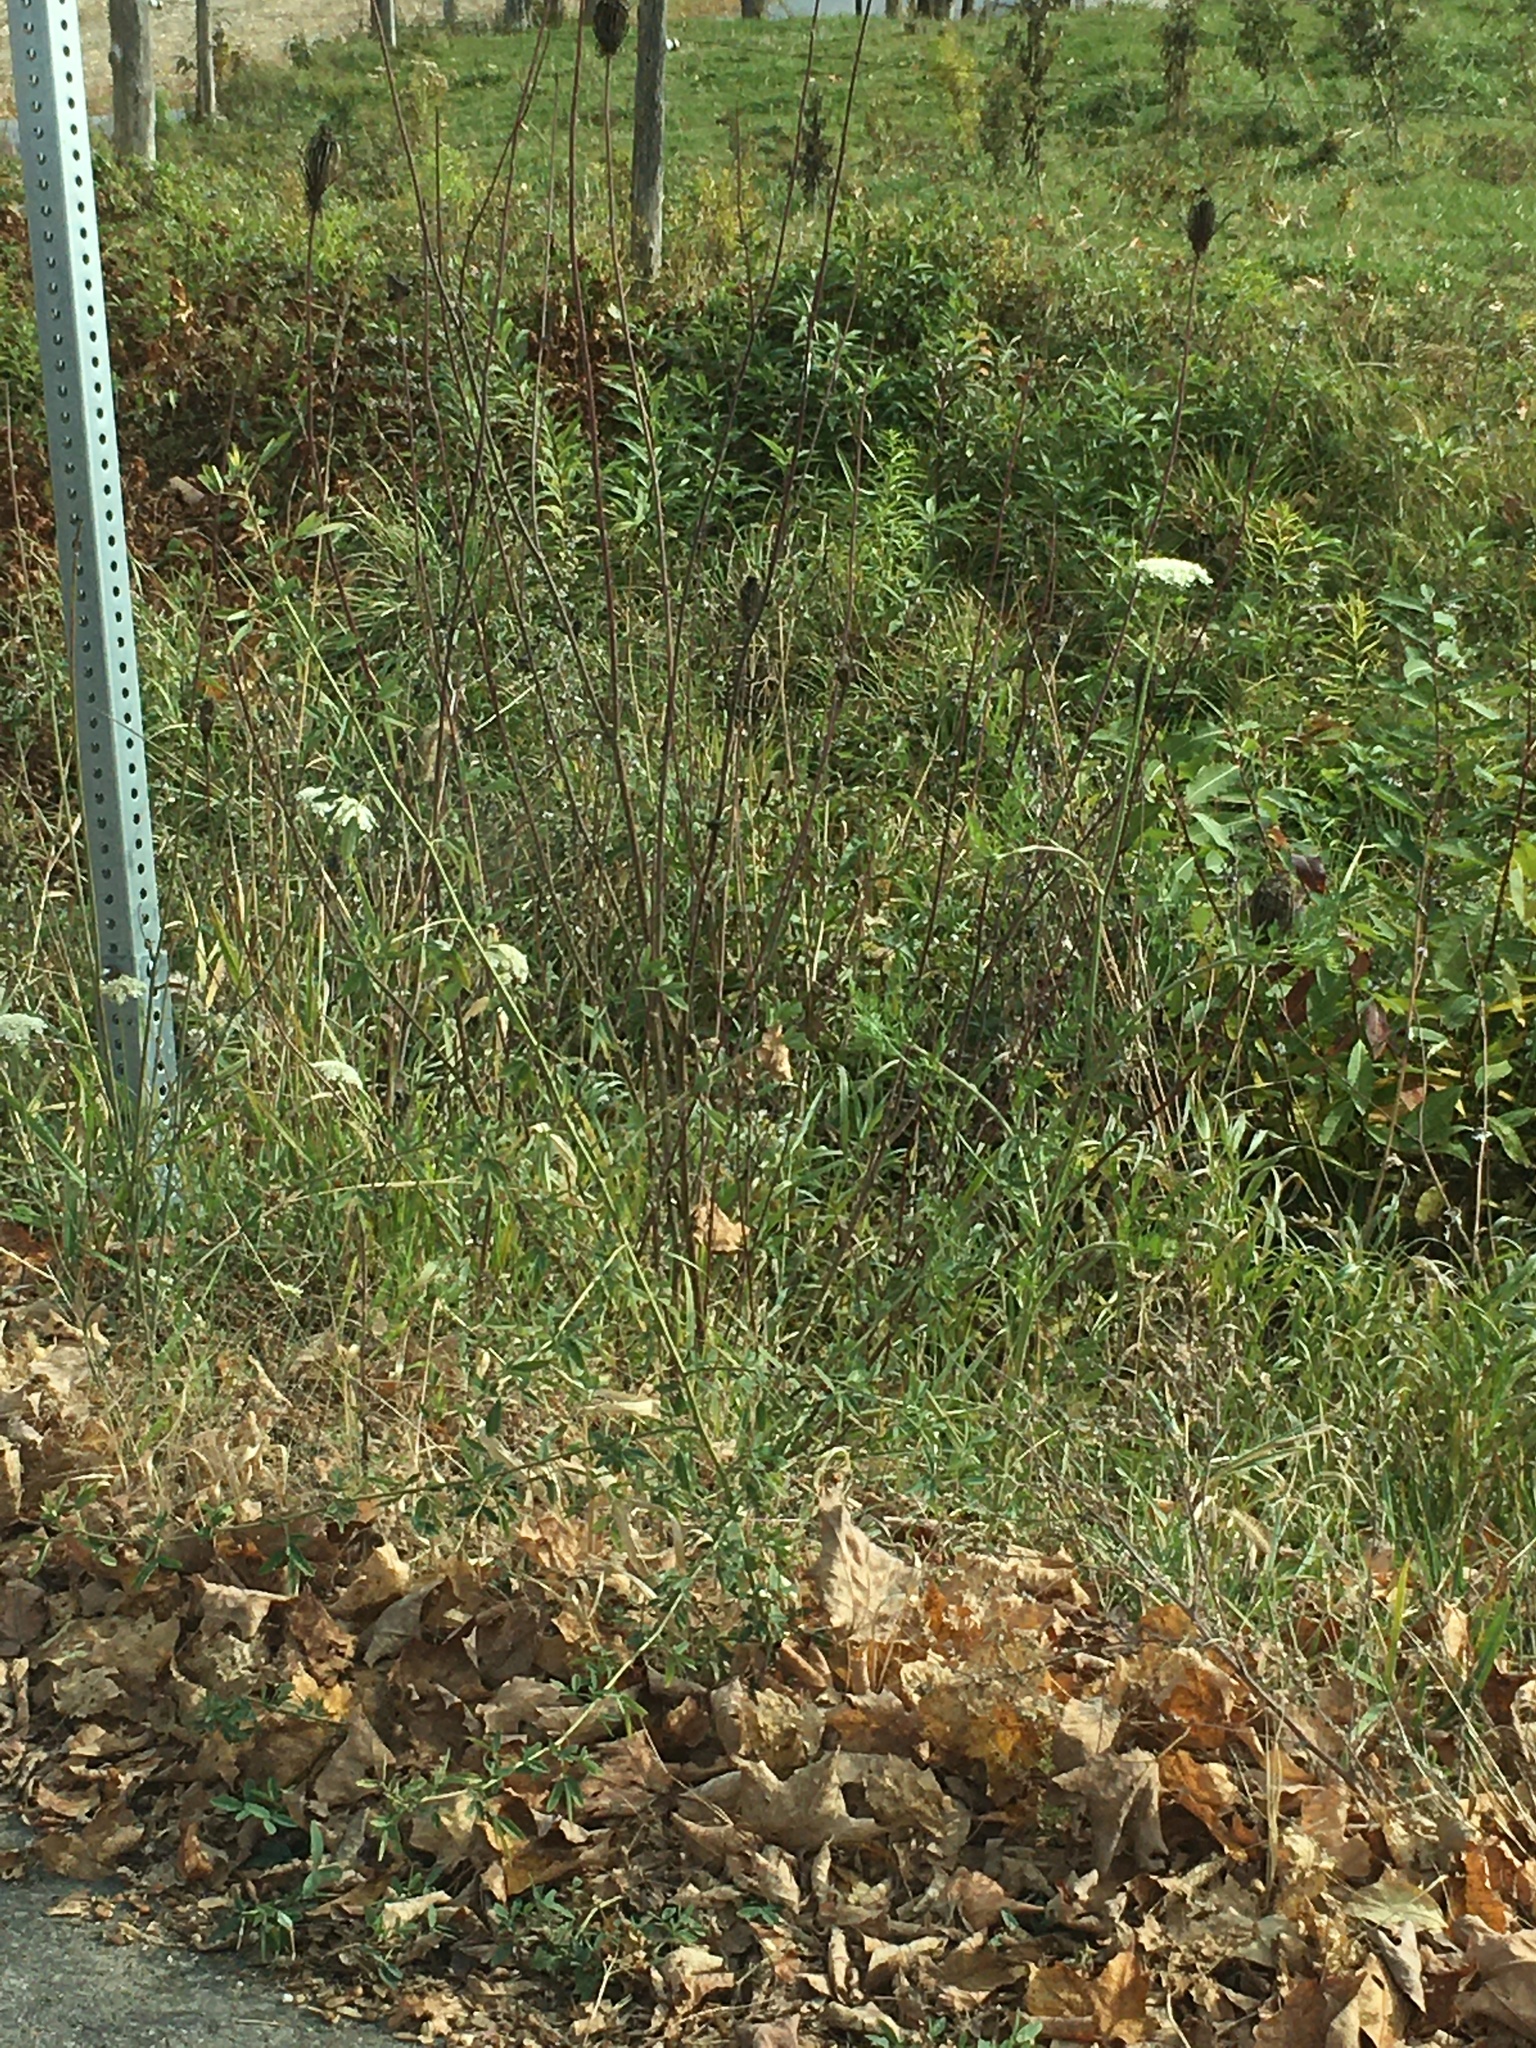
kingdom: Plantae
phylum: Tracheophyta
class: Magnoliopsida
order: Apiales
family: Apiaceae
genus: Daucus
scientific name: Daucus carota
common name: Wild carrot
